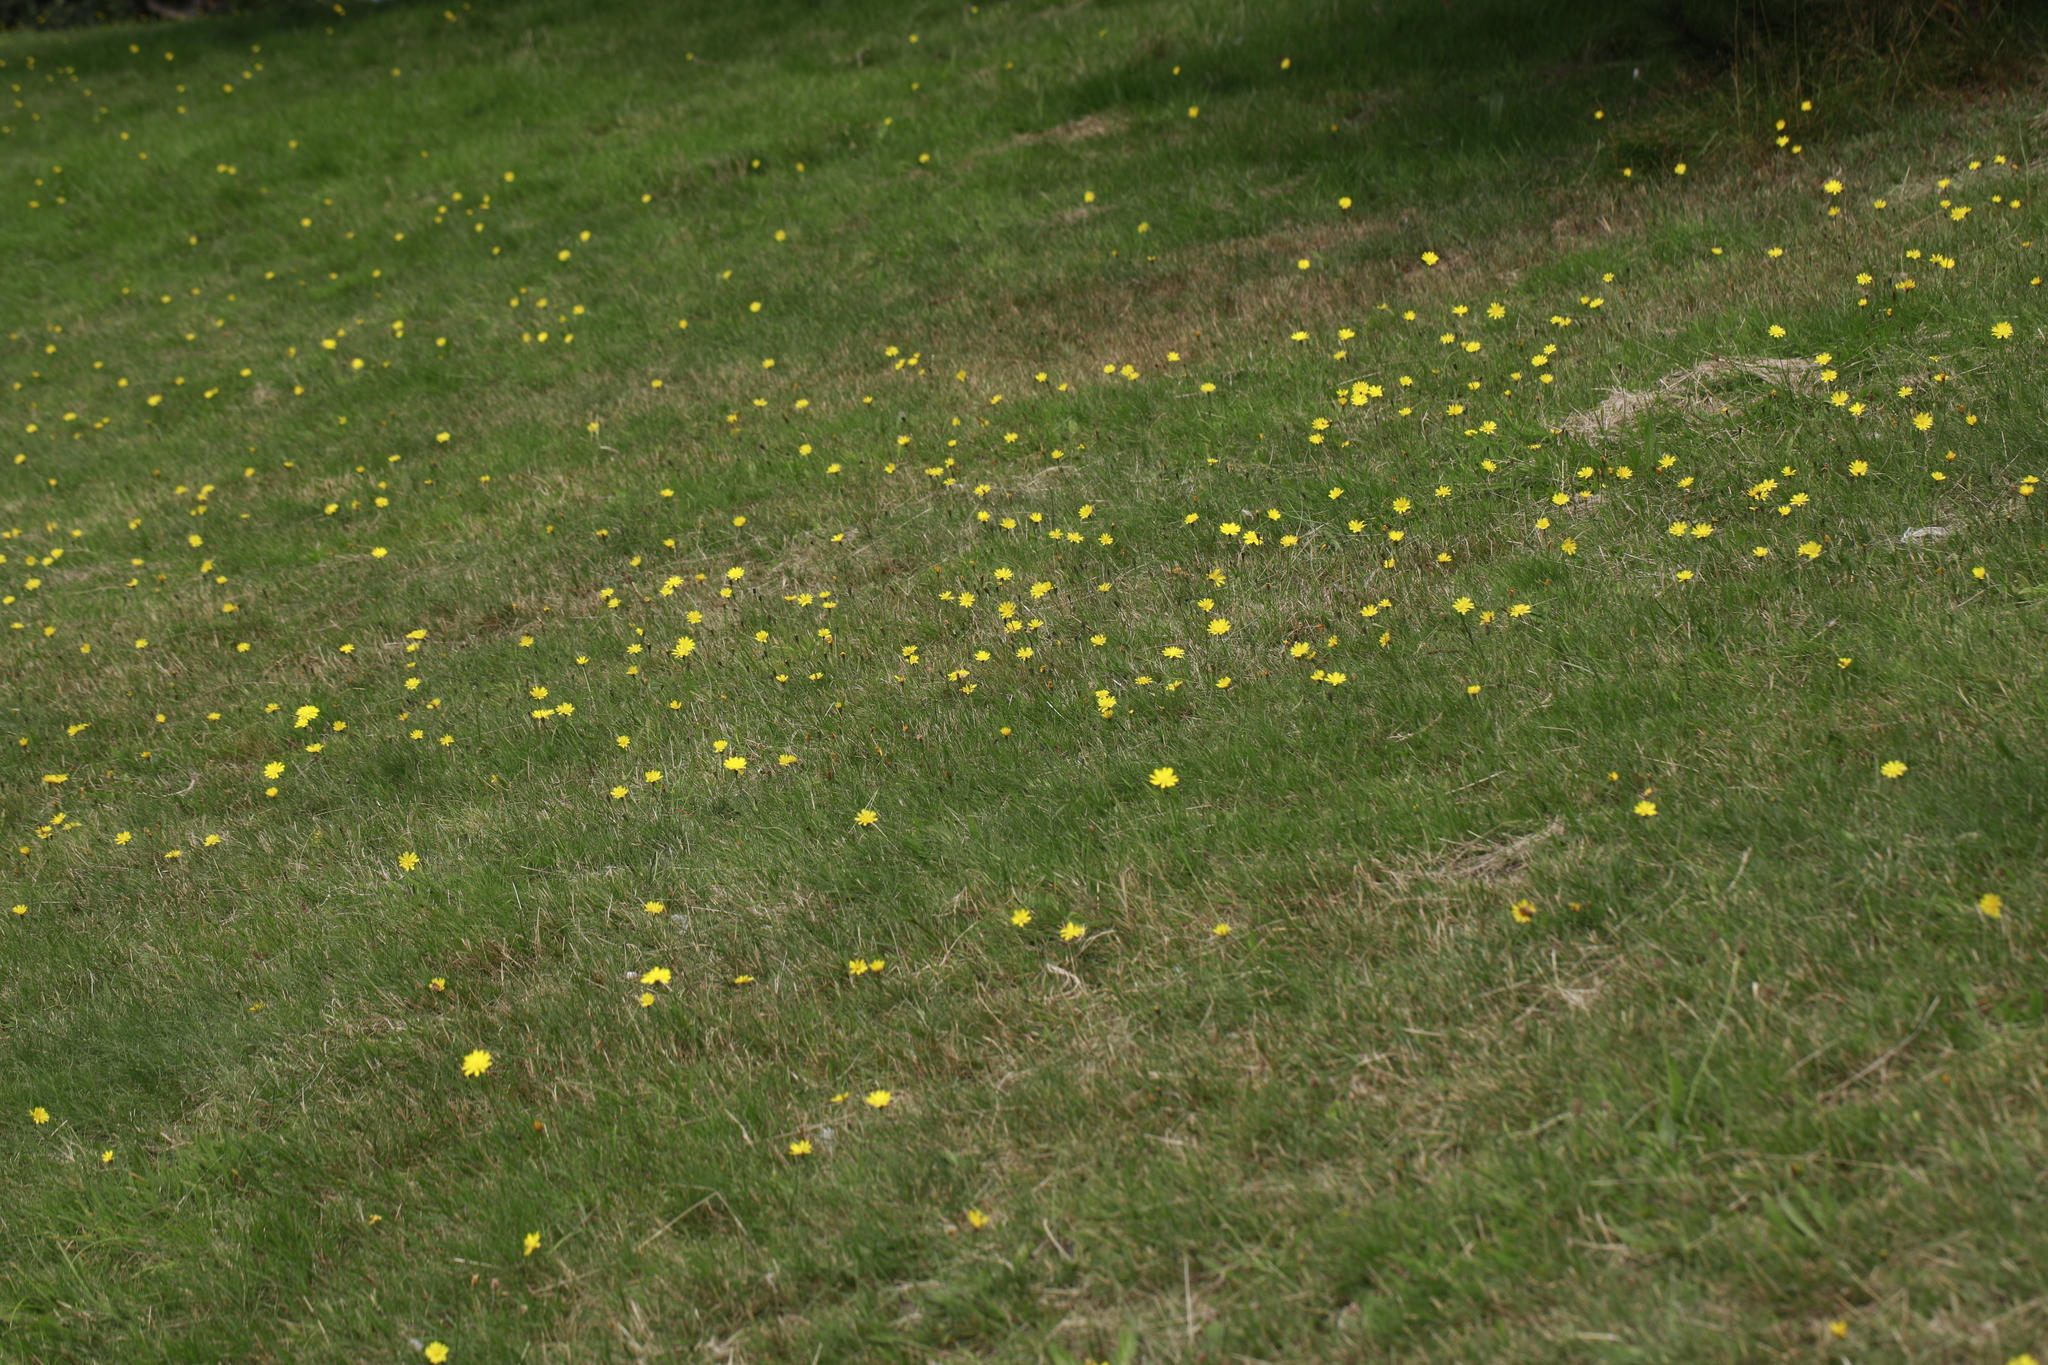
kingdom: Plantae
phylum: Tracheophyta
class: Magnoliopsida
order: Asterales
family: Asteraceae
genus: Hypochaeris
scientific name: Hypochaeris radicata
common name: Flatweed
